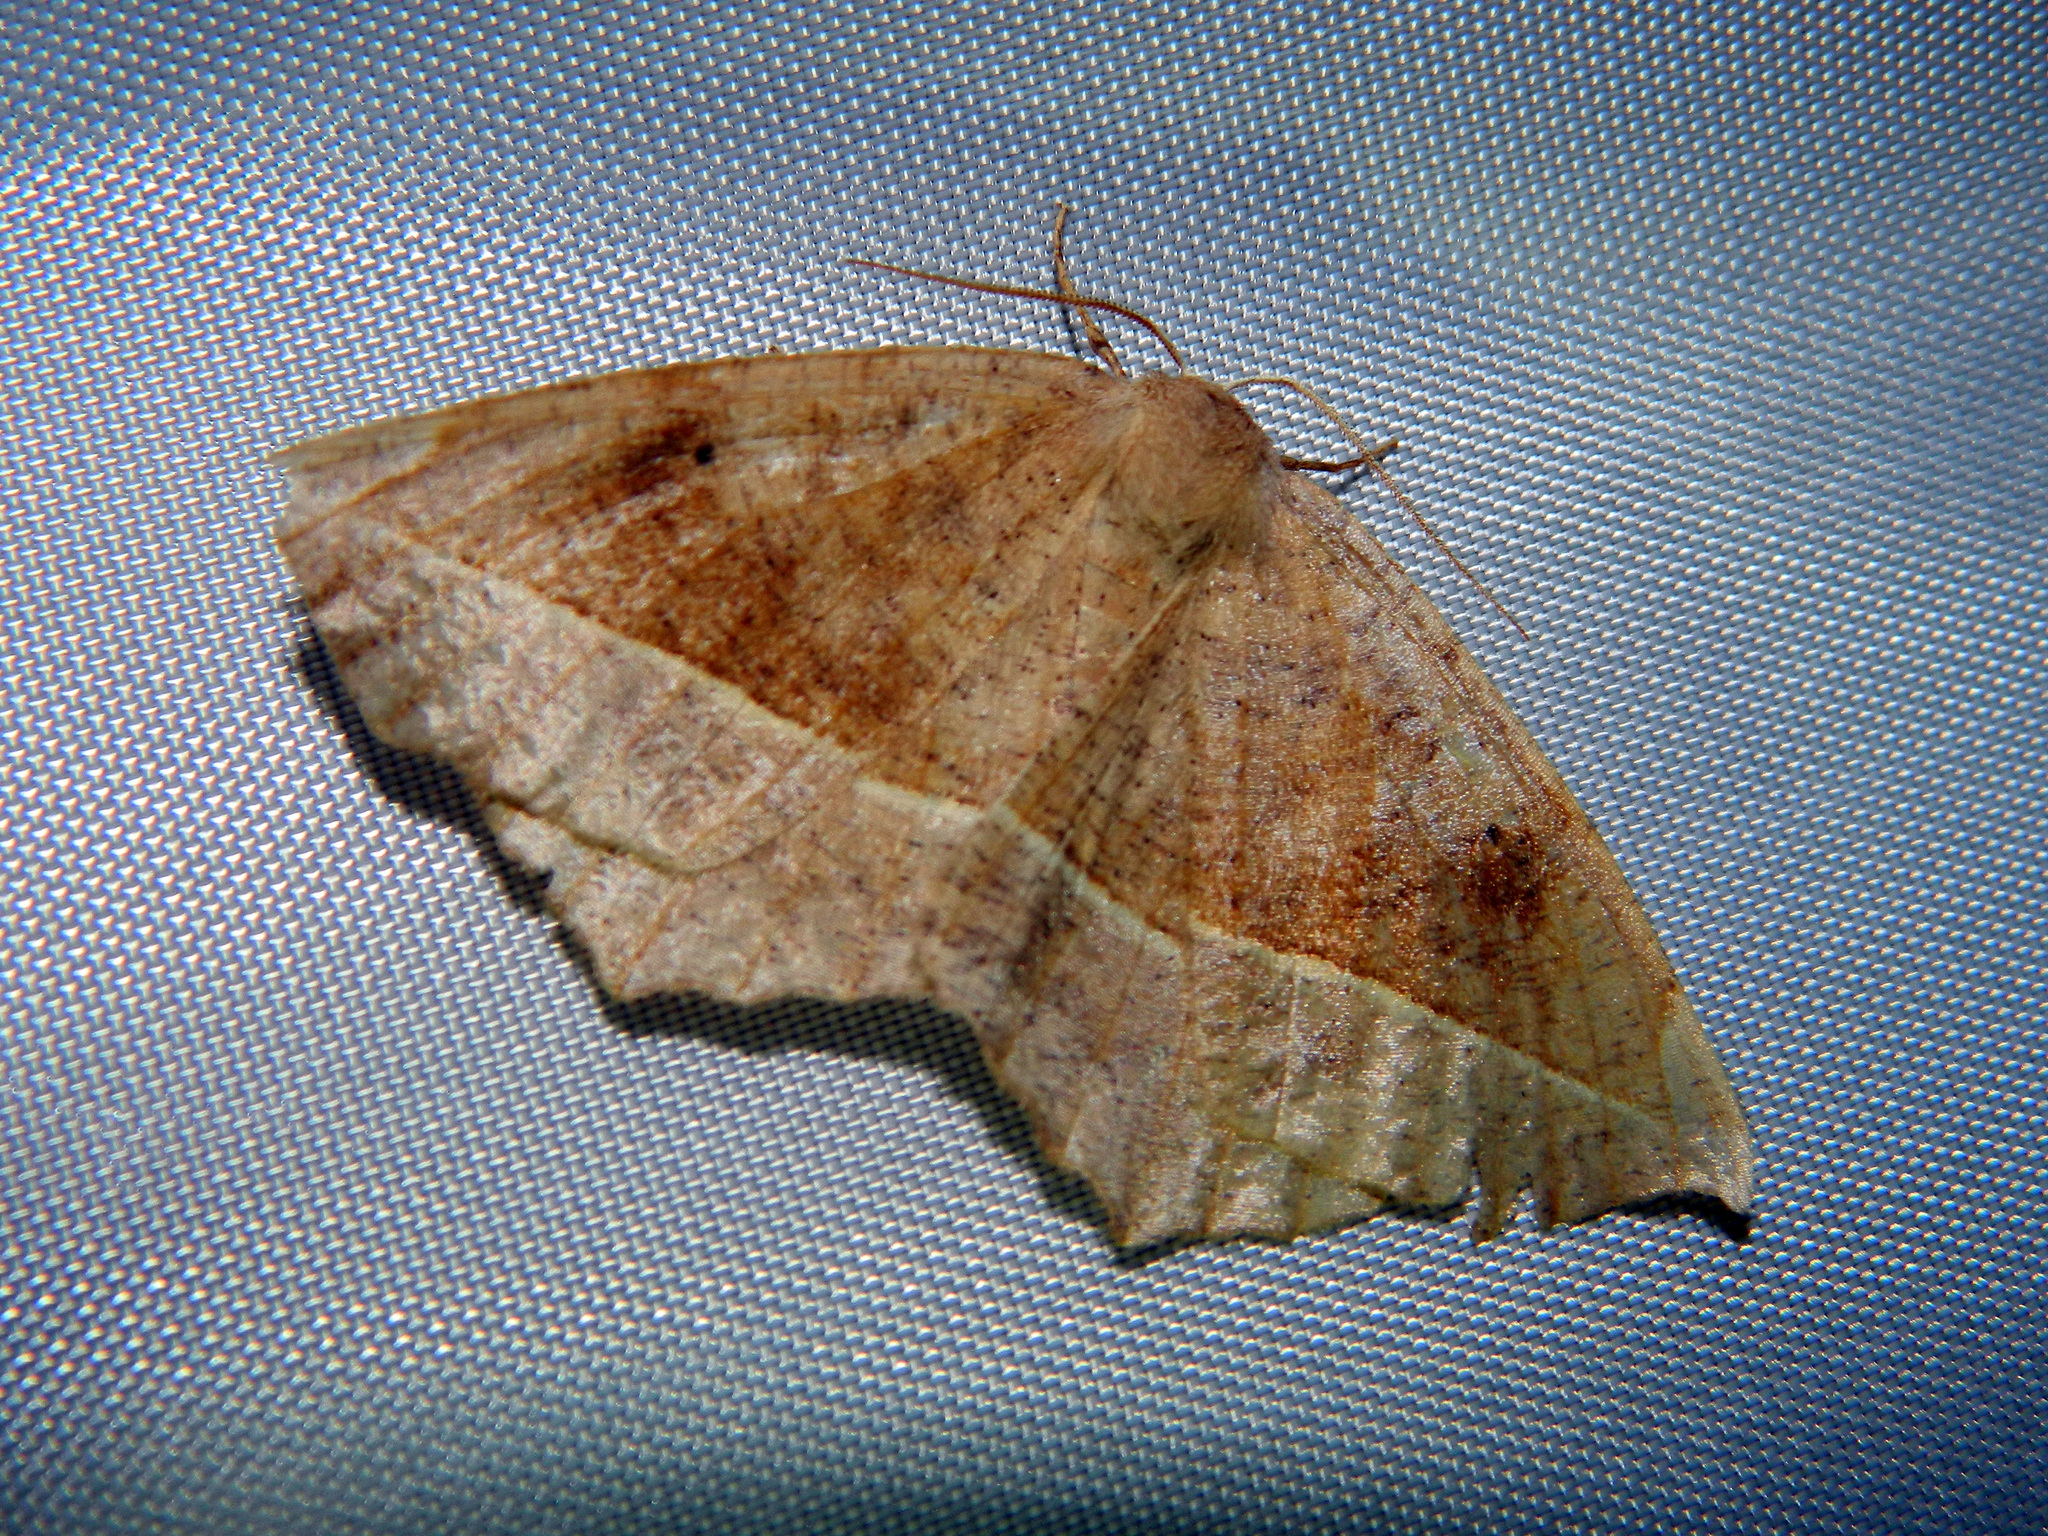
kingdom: Animalia
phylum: Arthropoda
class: Insecta
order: Lepidoptera
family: Geometridae
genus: Eutrapela
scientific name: Eutrapela clemataria
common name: Curved-toothed geometer
